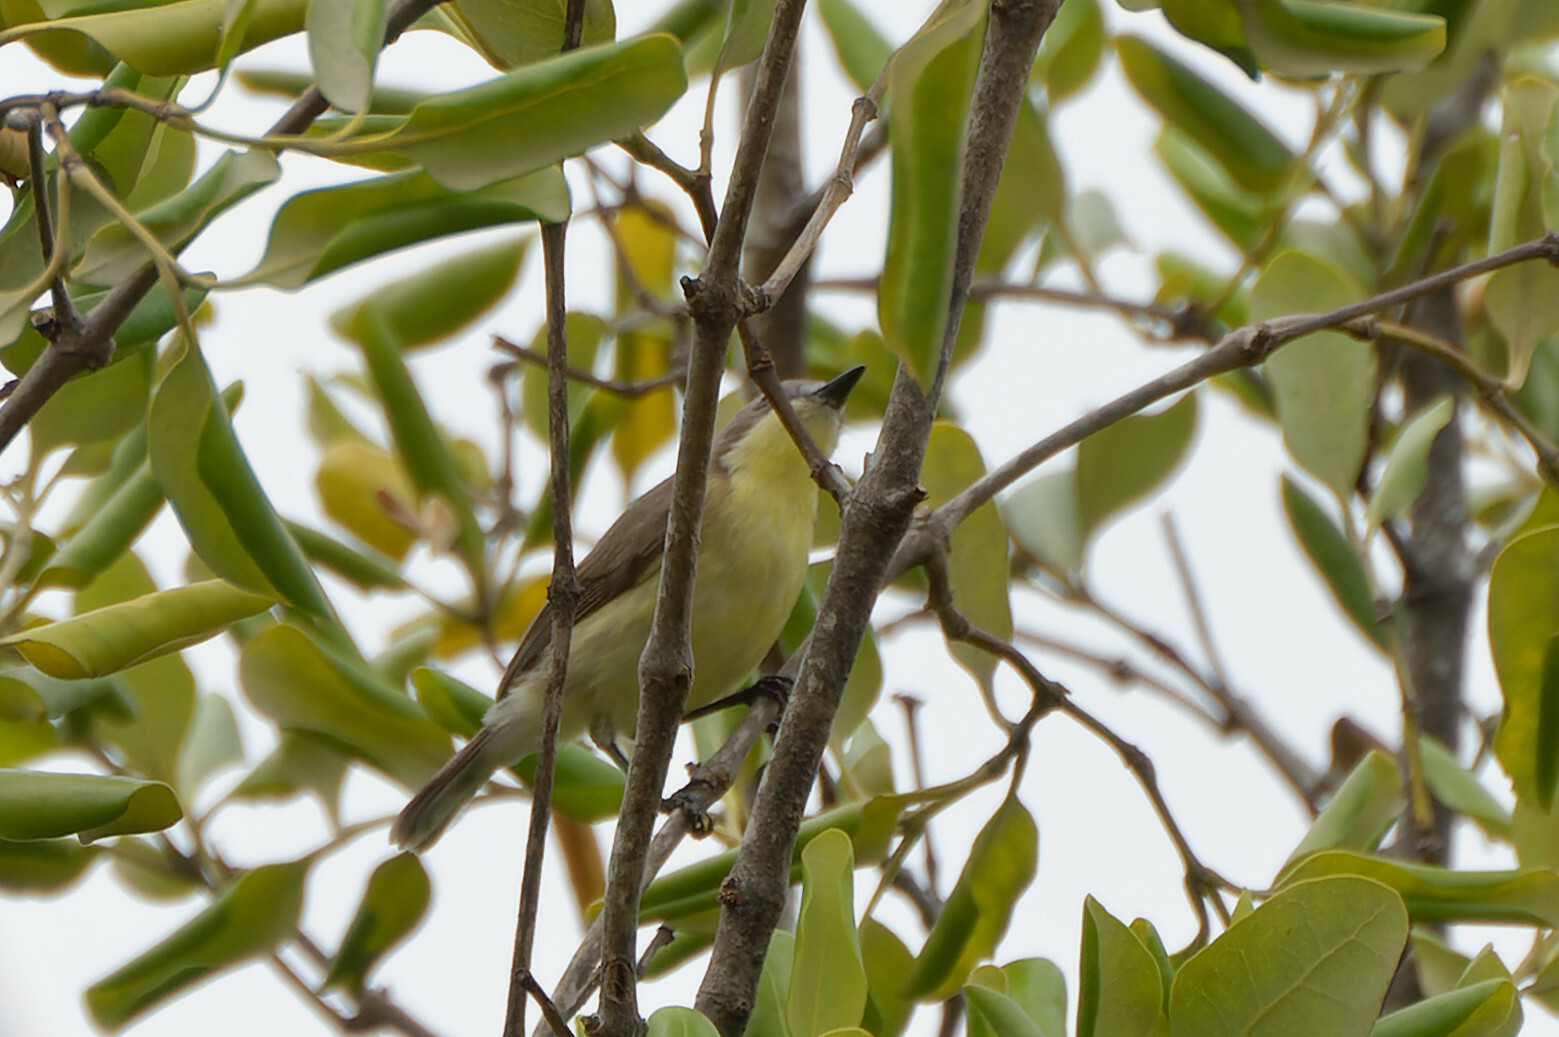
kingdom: Animalia
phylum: Chordata
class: Aves
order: Passeriformes
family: Acanthizidae
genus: Gerygone
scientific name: Gerygone sulphurea
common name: Golden-bellied gerygone
